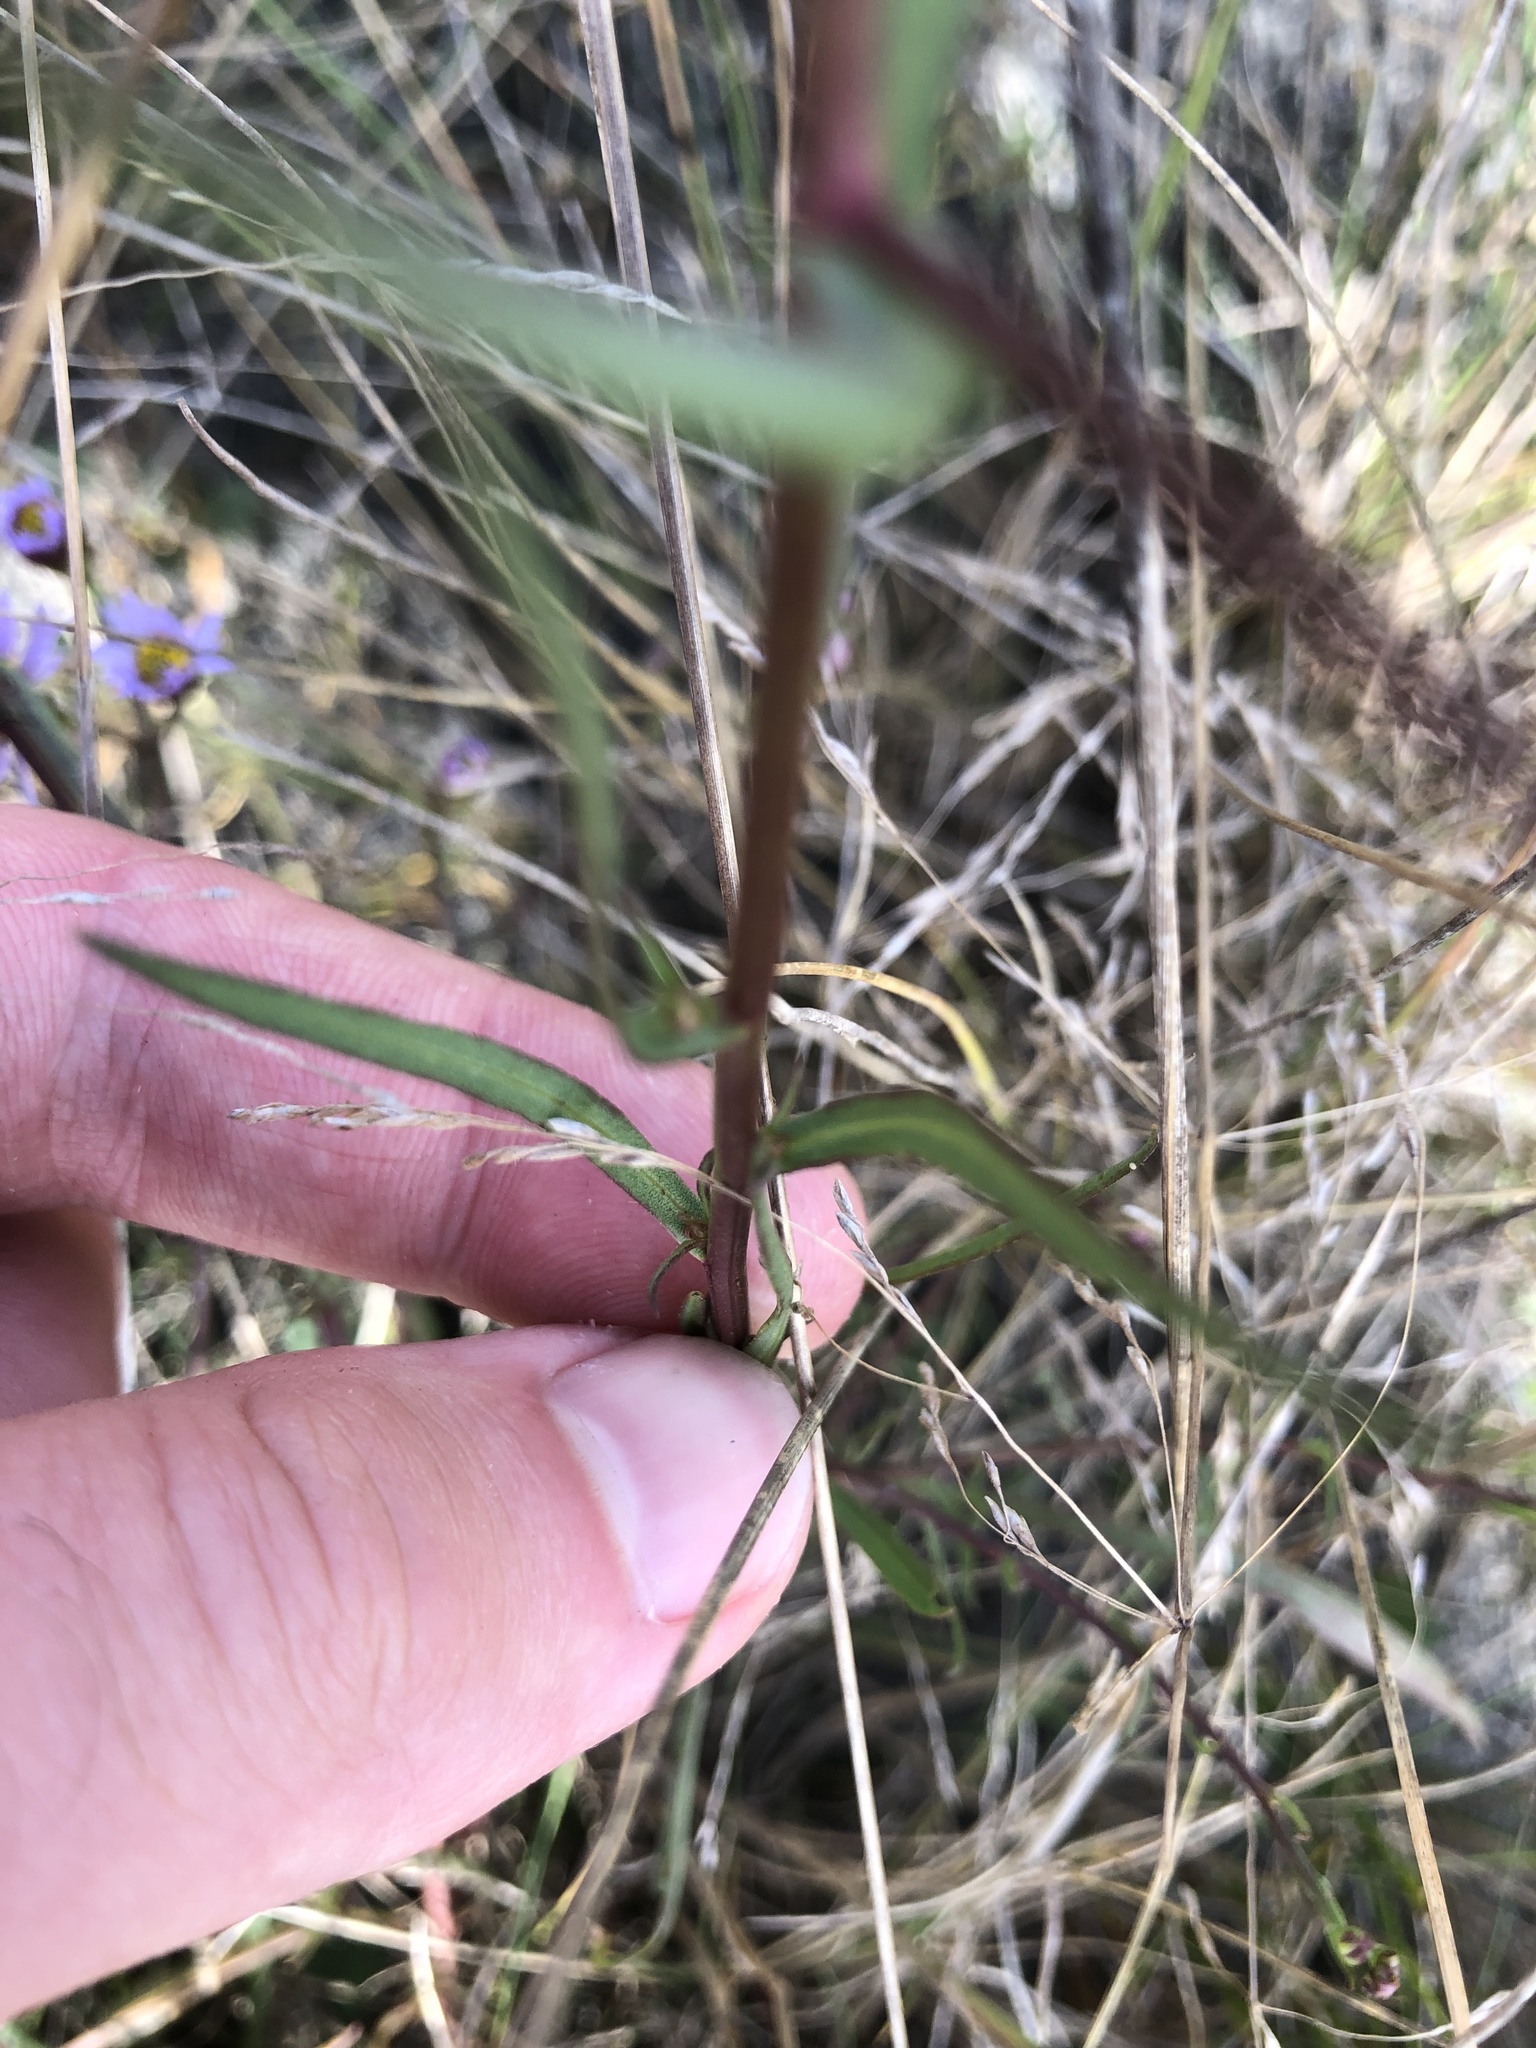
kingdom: Plantae
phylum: Tracheophyta
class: Magnoliopsida
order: Asterales
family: Asteraceae
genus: Tripolium
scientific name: Tripolium pannonicum
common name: Sea aster
